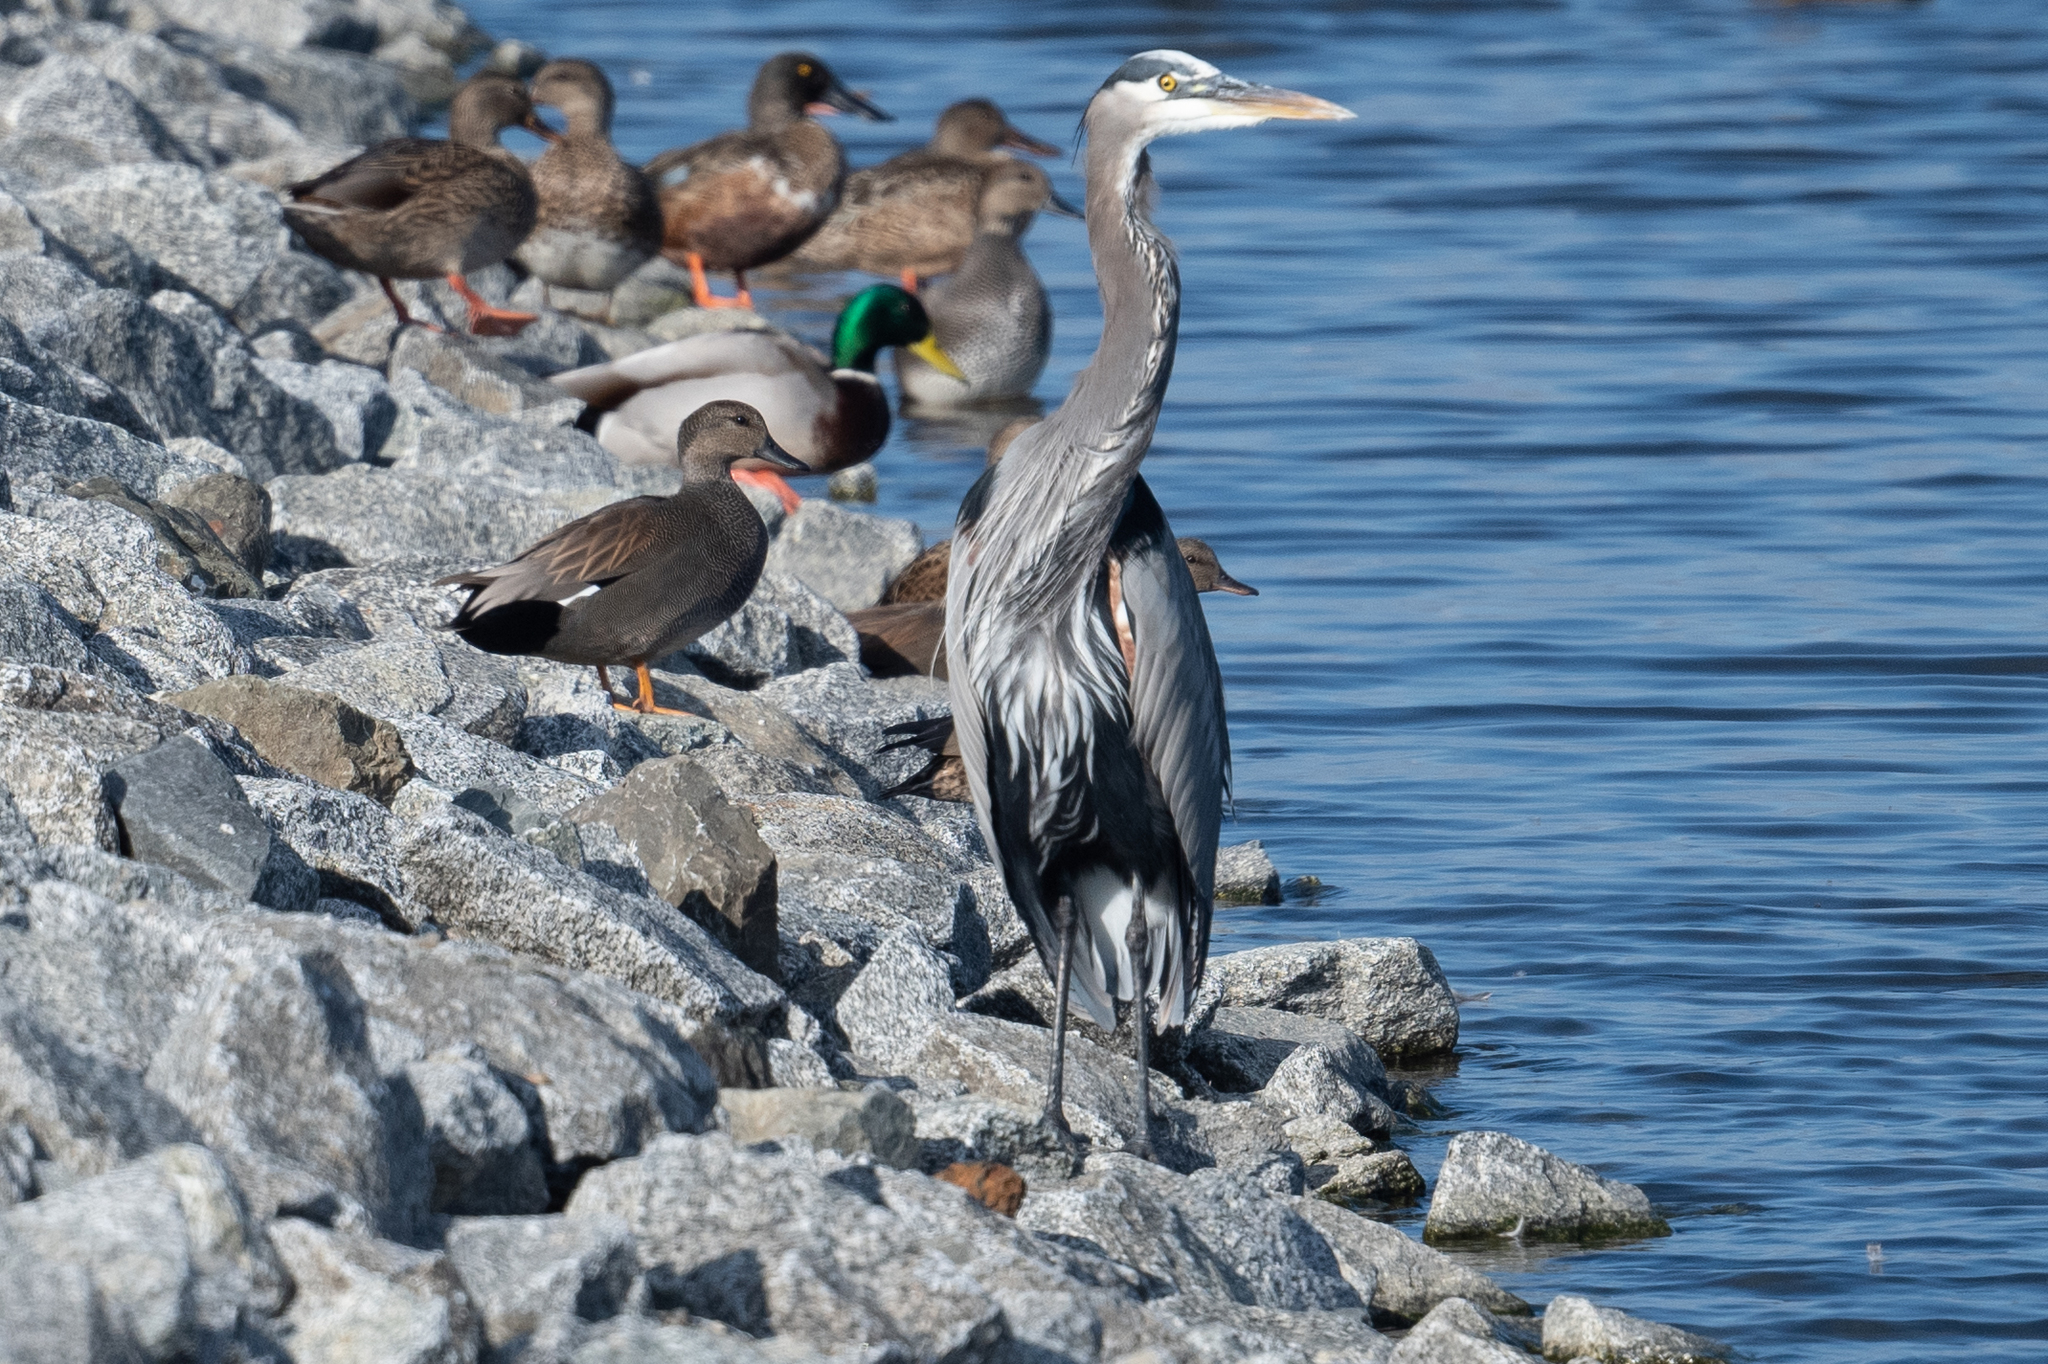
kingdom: Animalia
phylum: Chordata
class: Aves
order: Pelecaniformes
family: Ardeidae
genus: Ardea
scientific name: Ardea herodias
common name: Great blue heron
